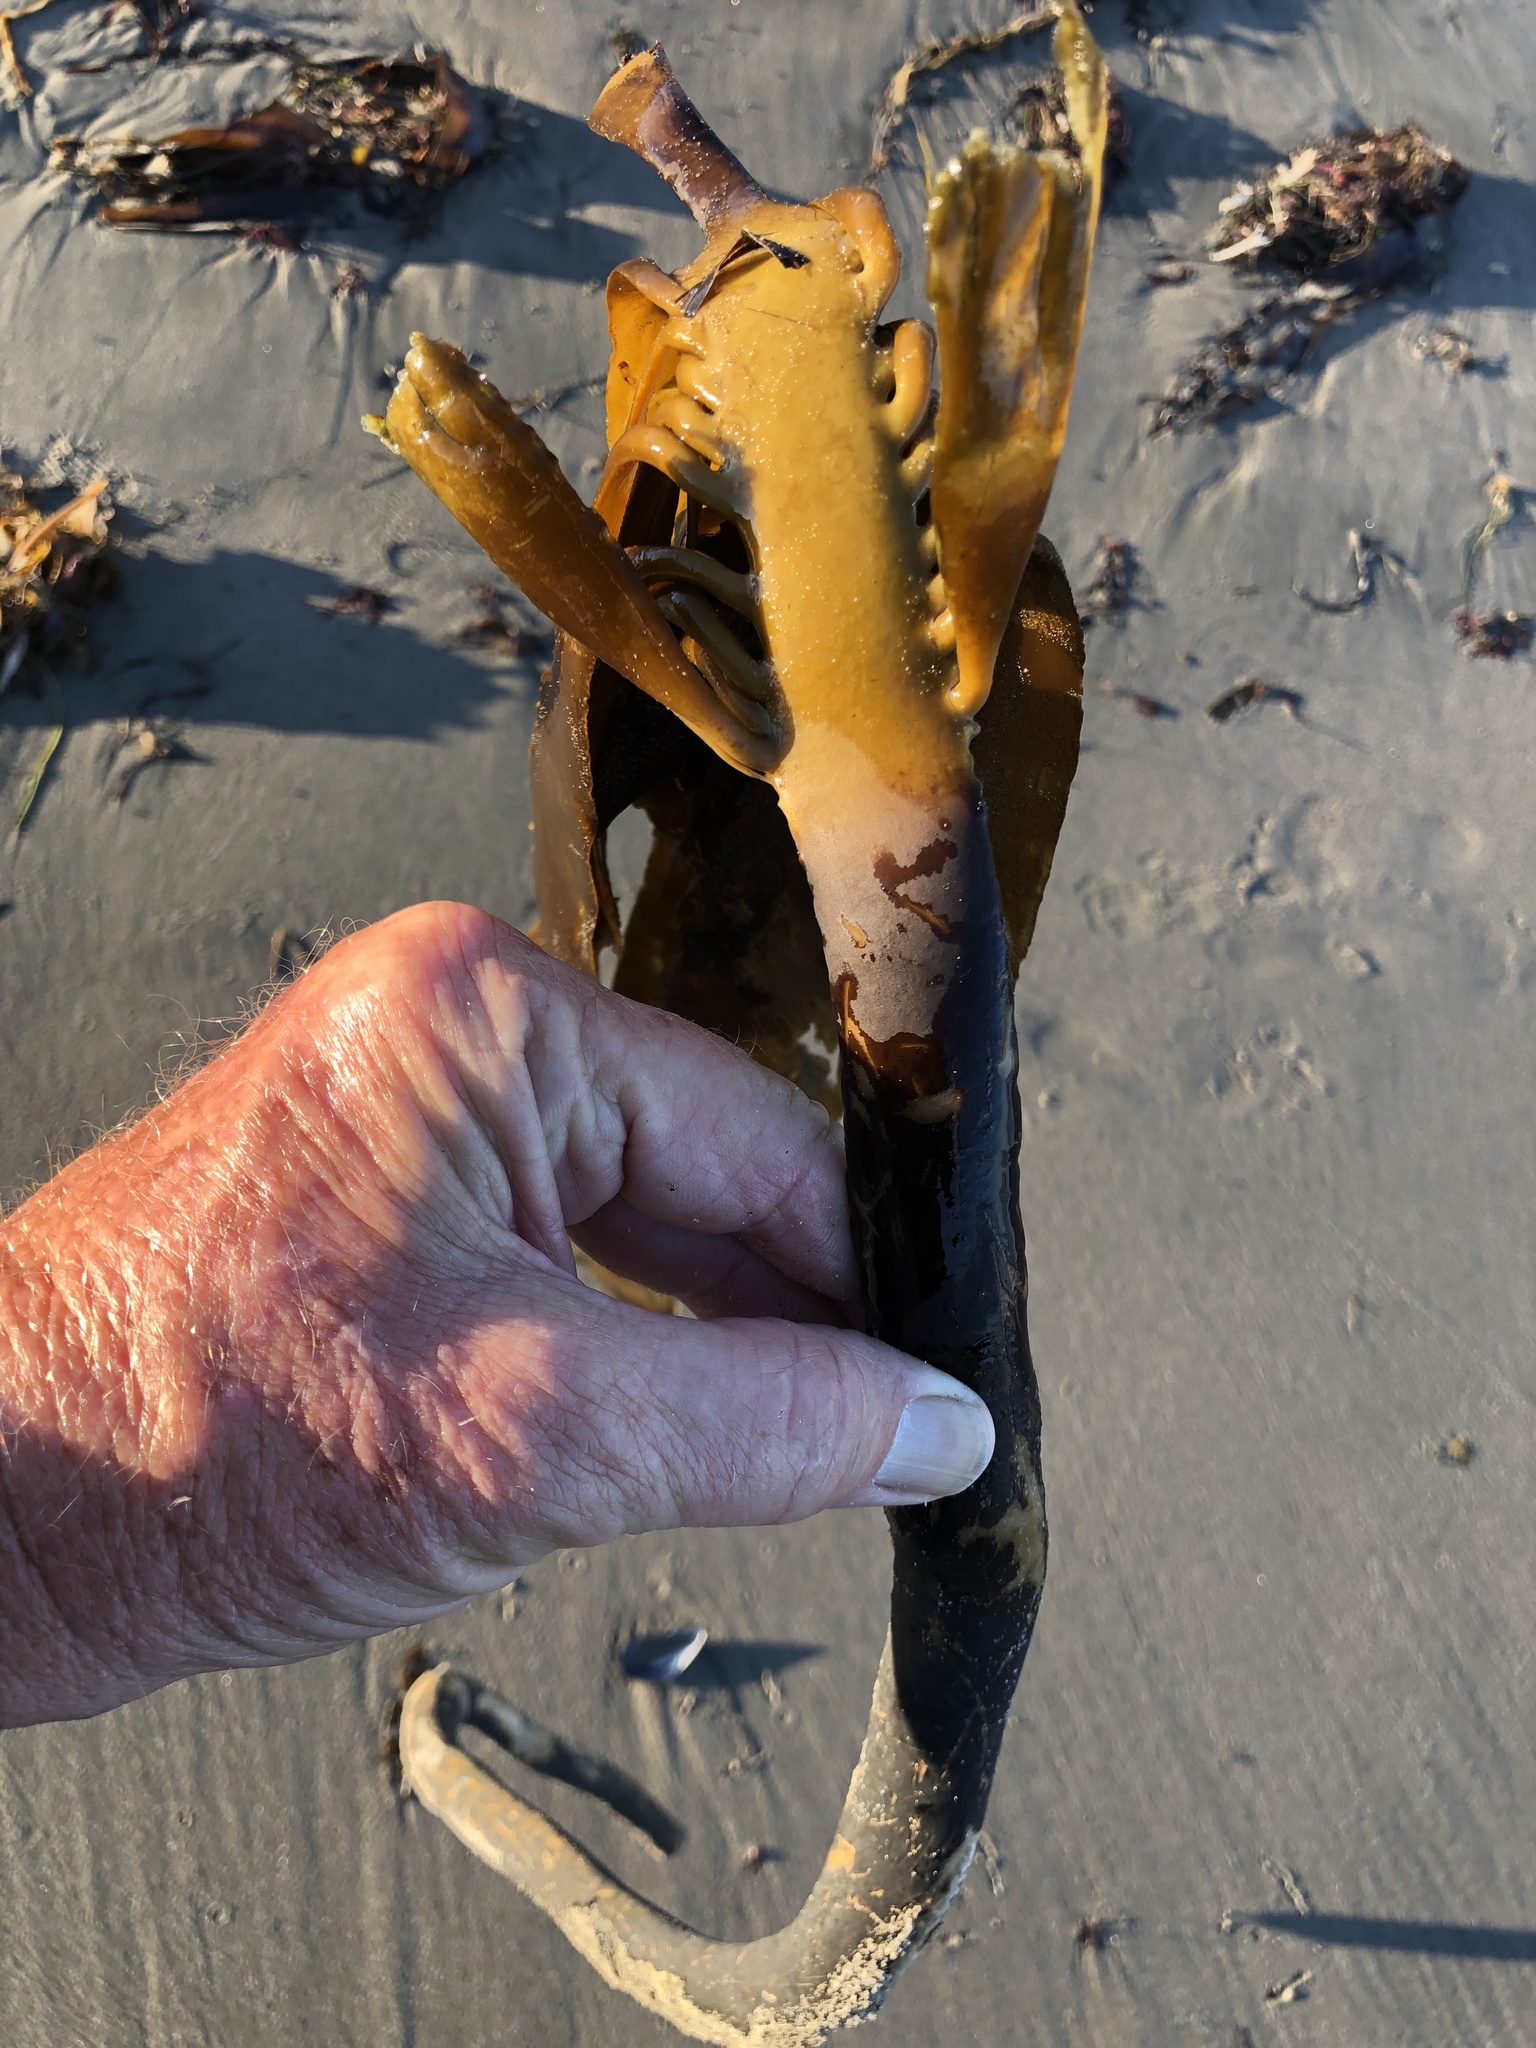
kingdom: Chromista
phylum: Ochrophyta
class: Phaeophyceae
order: Laminariales
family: Alariaceae
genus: Pterygophora
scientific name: Pterygophora californica
